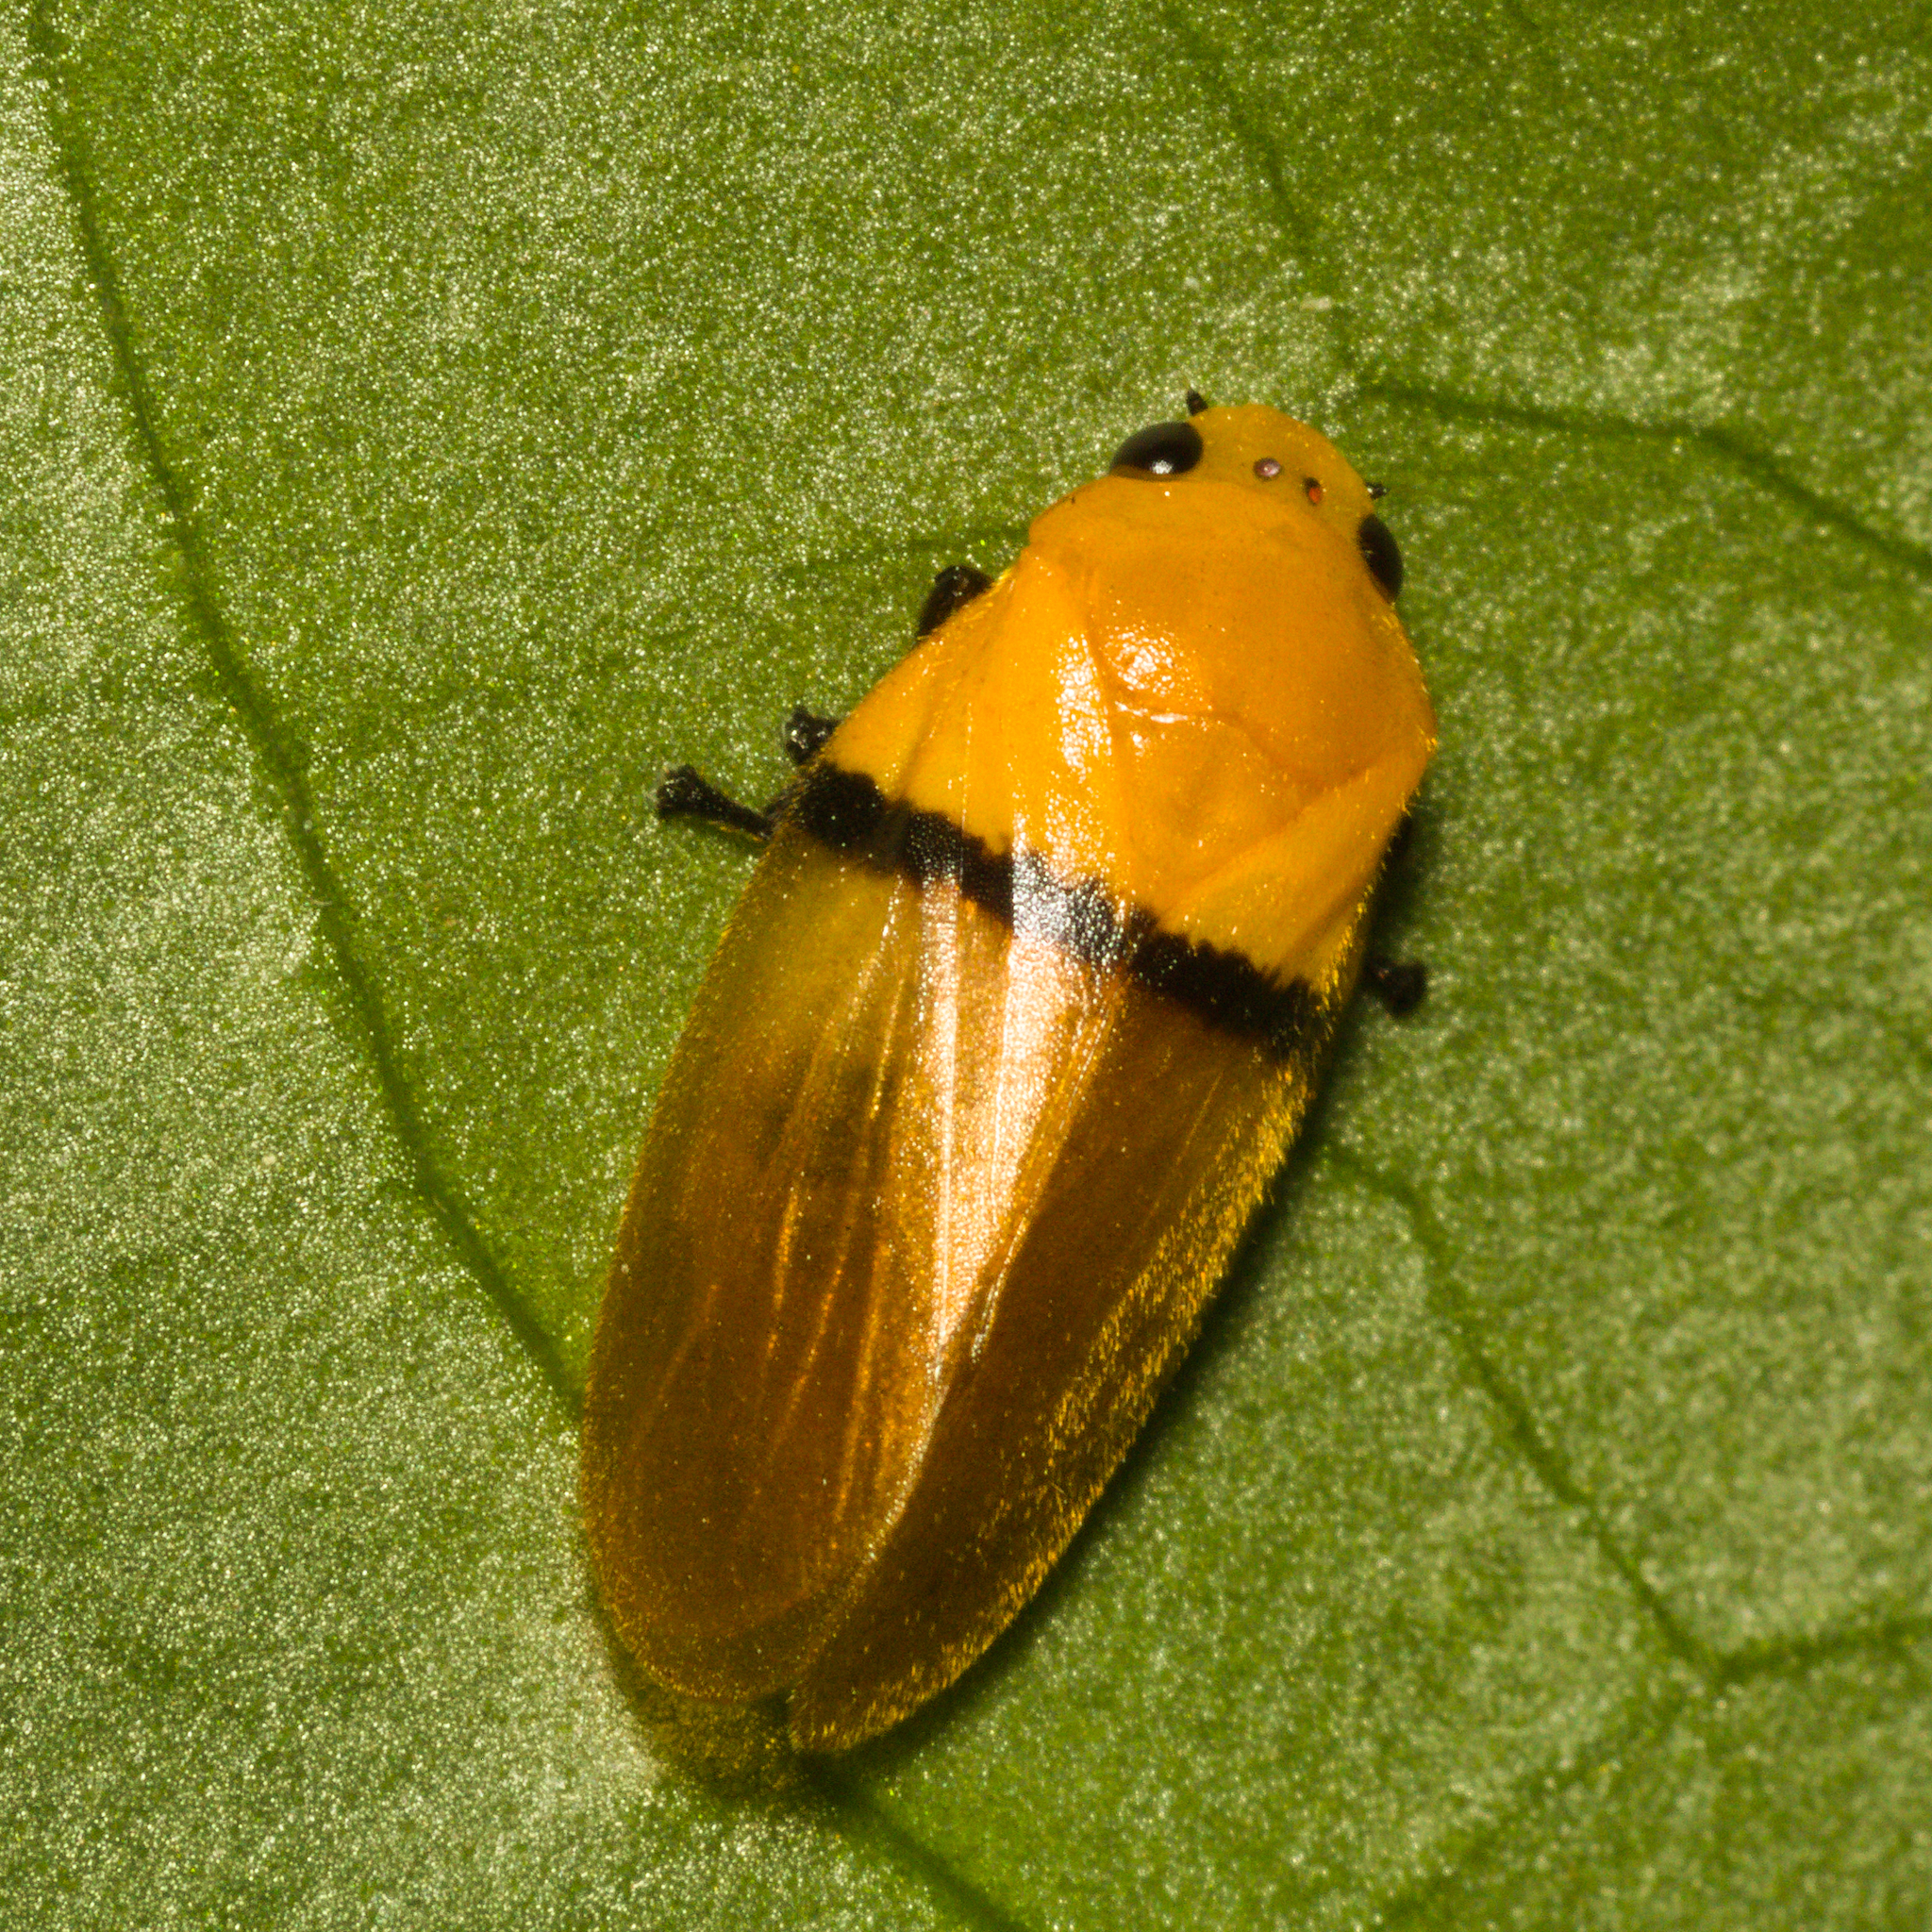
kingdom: Animalia
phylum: Arthropoda
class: Insecta
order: Hemiptera
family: Cercopidae
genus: Monecphora
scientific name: Monecphora cingulata
